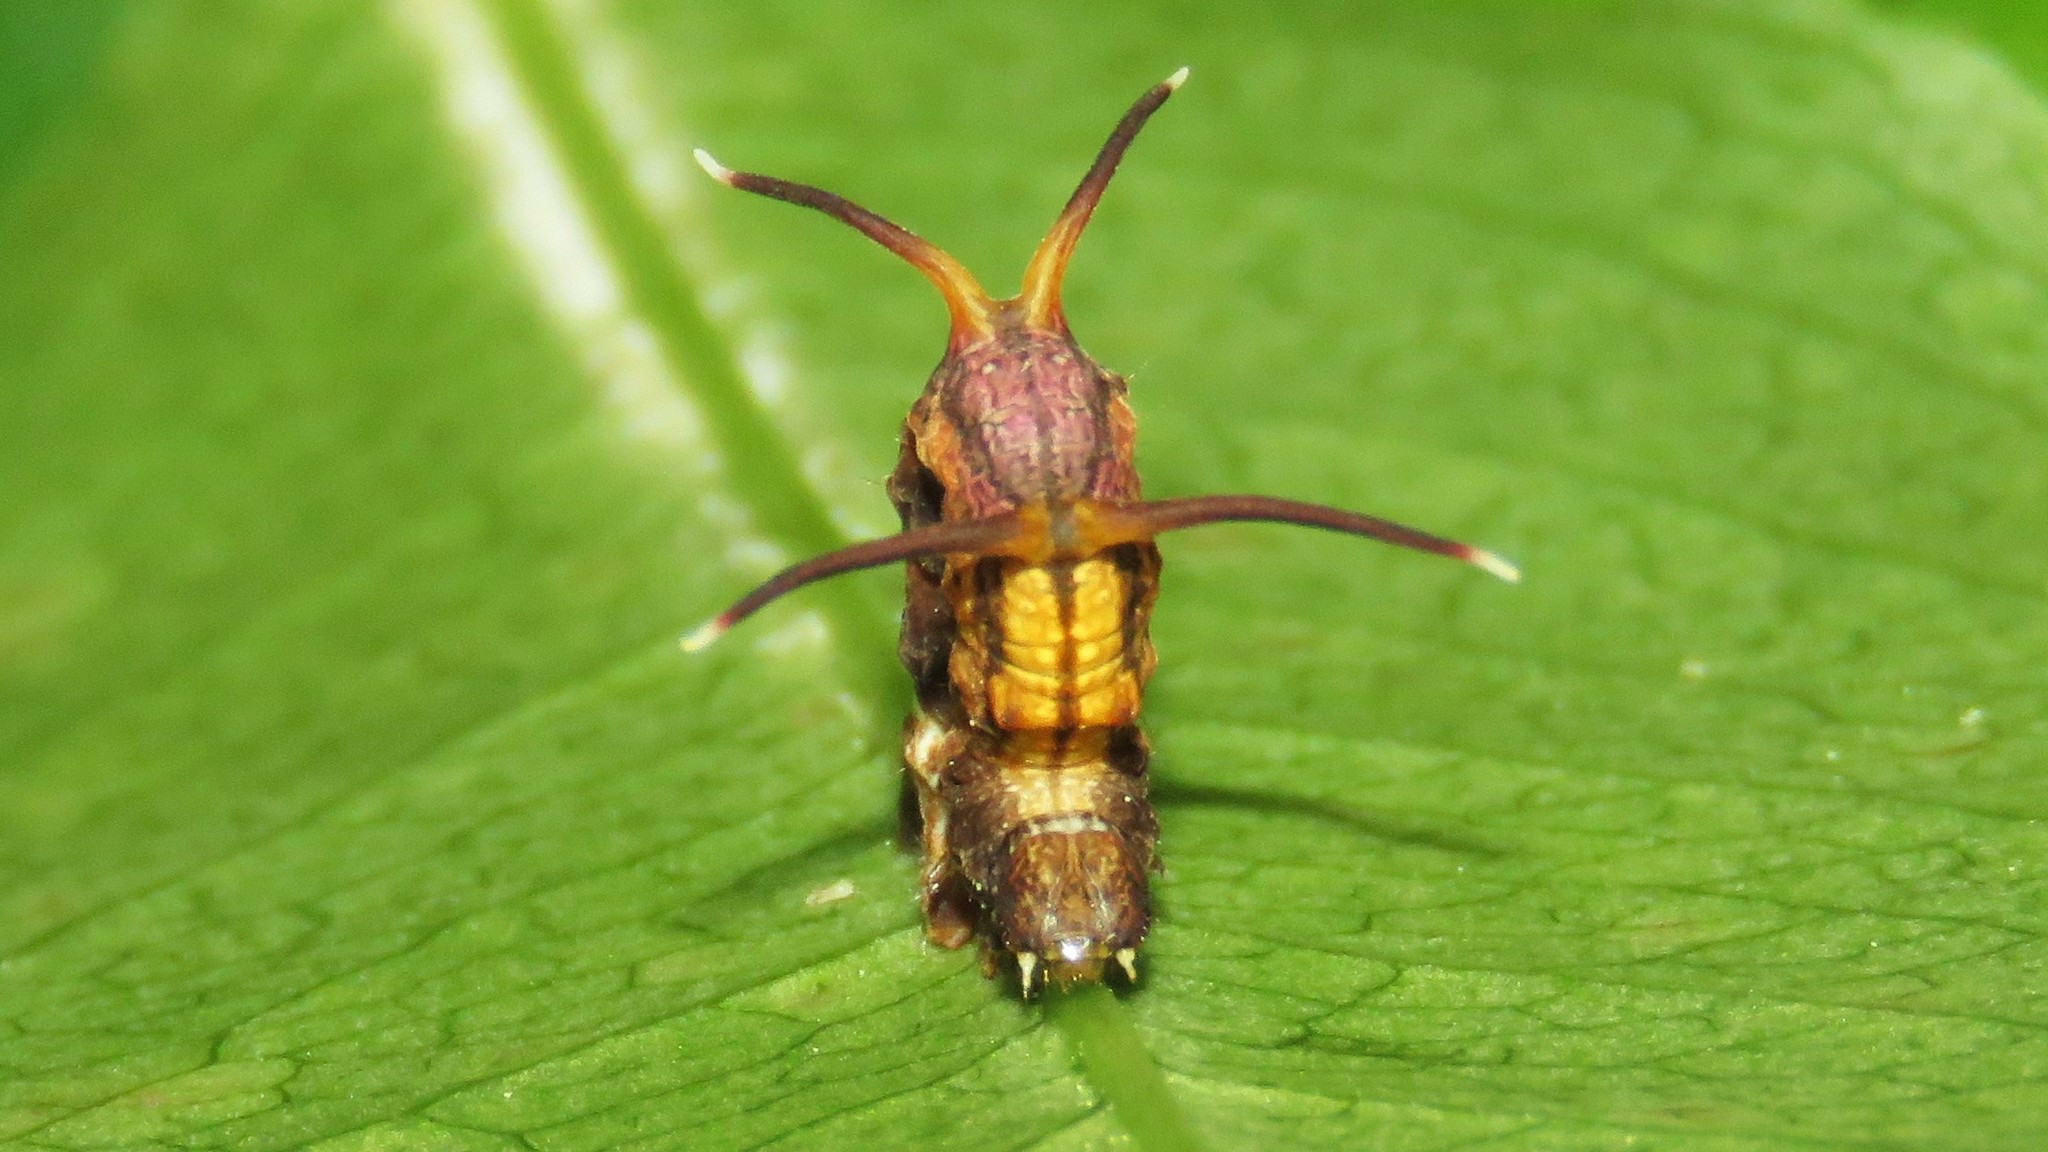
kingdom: Animalia
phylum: Arthropoda
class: Insecta
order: Lepidoptera
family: Geometridae
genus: Nematocampa
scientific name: Nematocampa resistaria
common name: Horned spanworm moth
